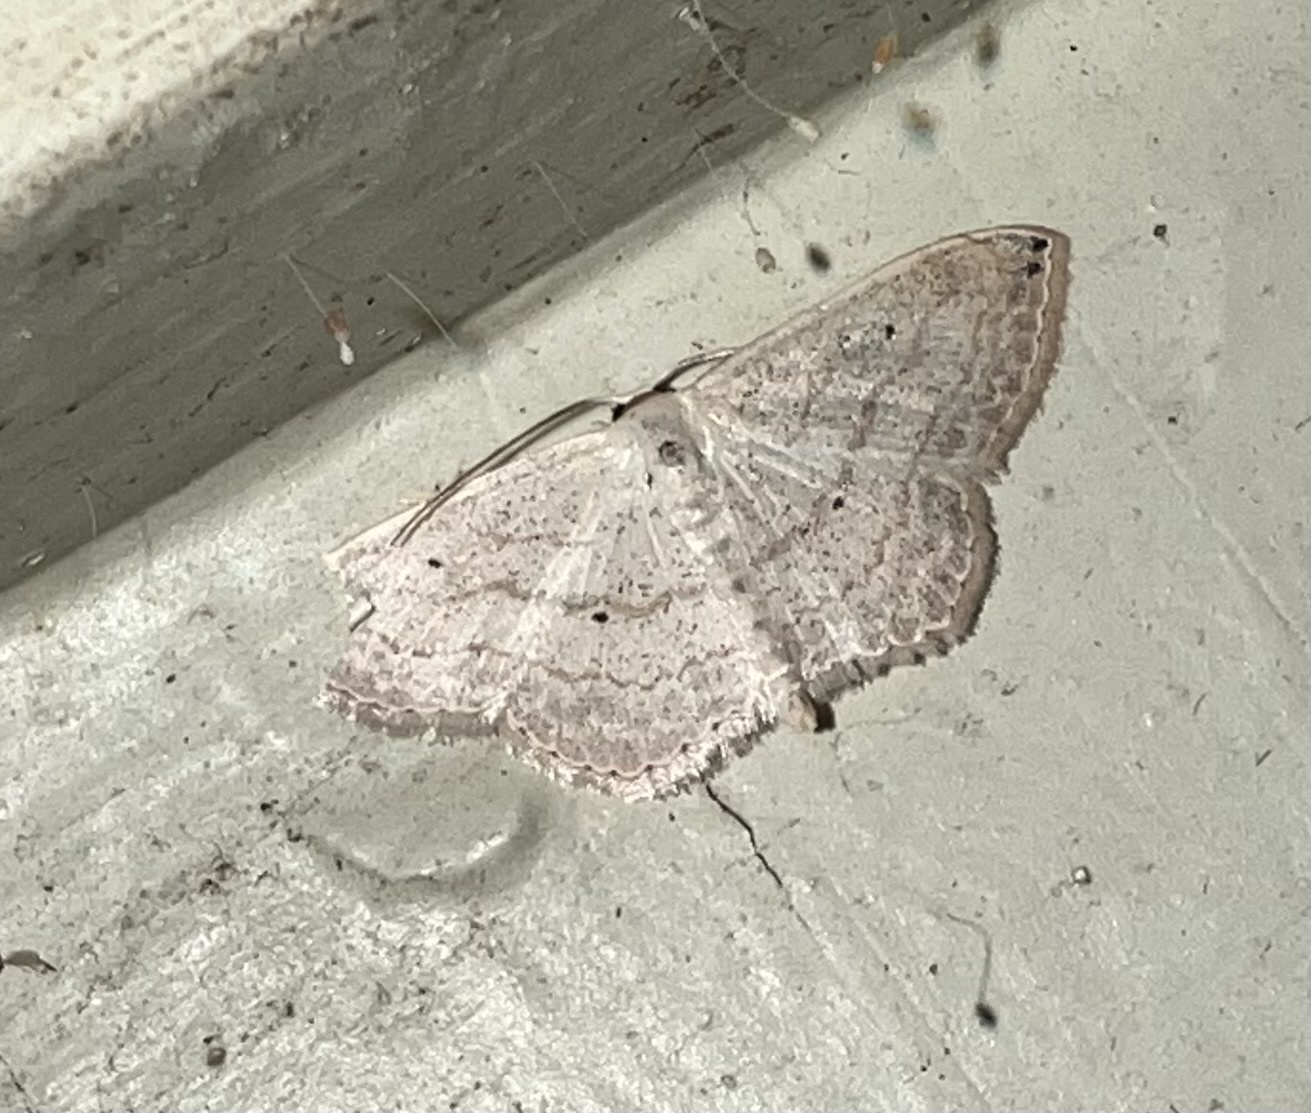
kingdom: Animalia
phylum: Arthropoda
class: Insecta
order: Lepidoptera
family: Geometridae
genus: Scopula
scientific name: Scopula umbilicata
